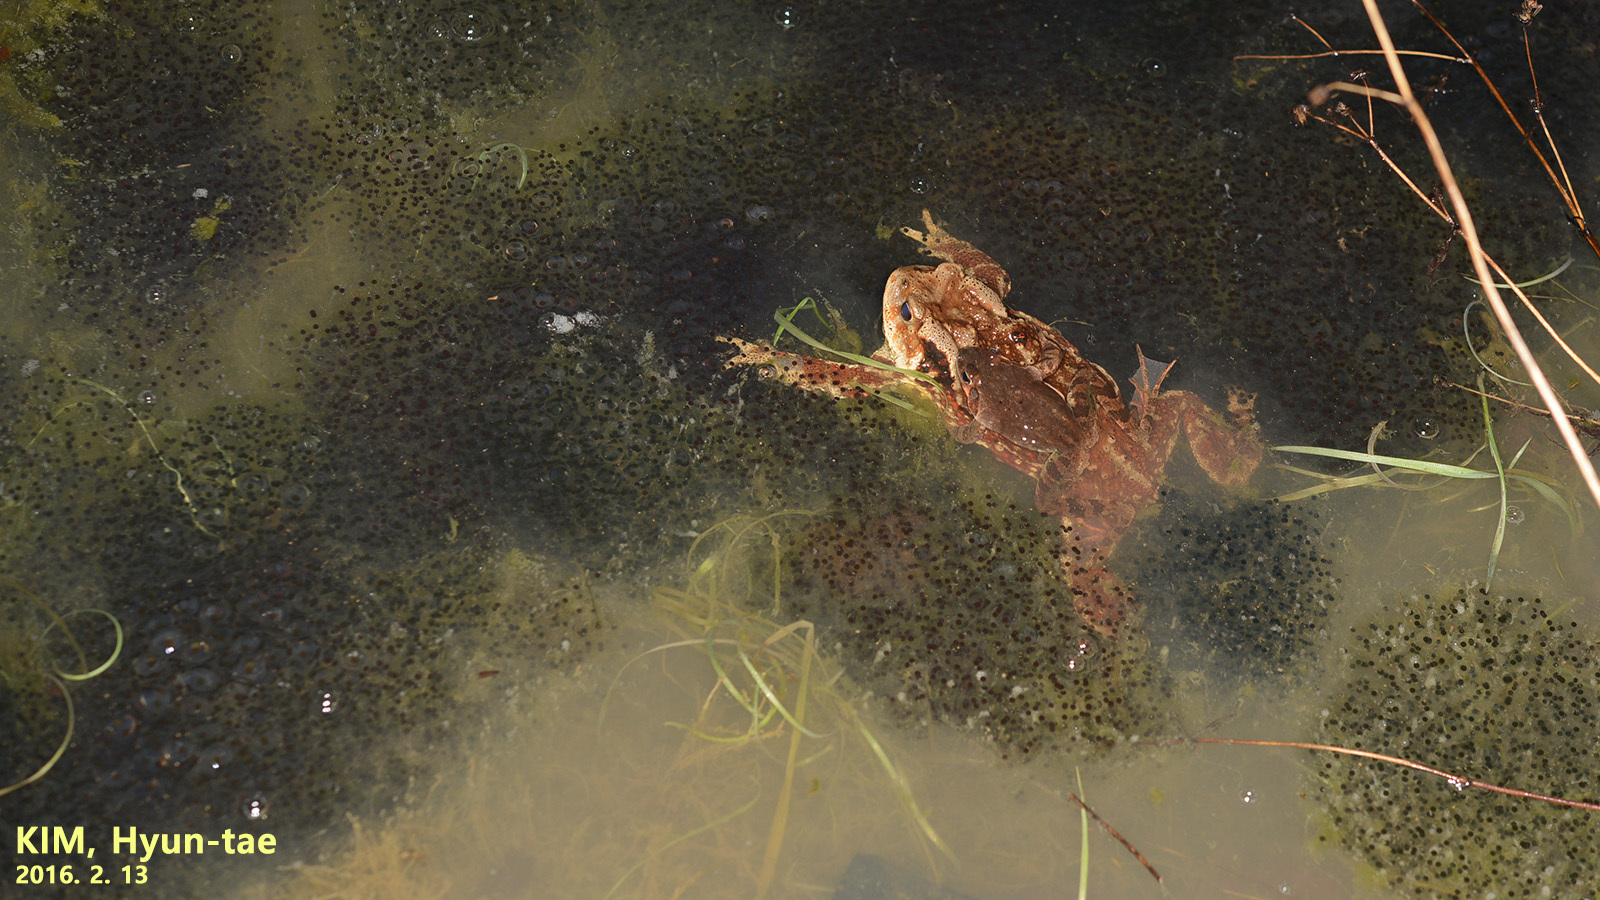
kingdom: Animalia
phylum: Chordata
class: Amphibia
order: Anura
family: Bufonidae
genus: Bufo
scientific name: Bufo gargarizans
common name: Asiatic toad
